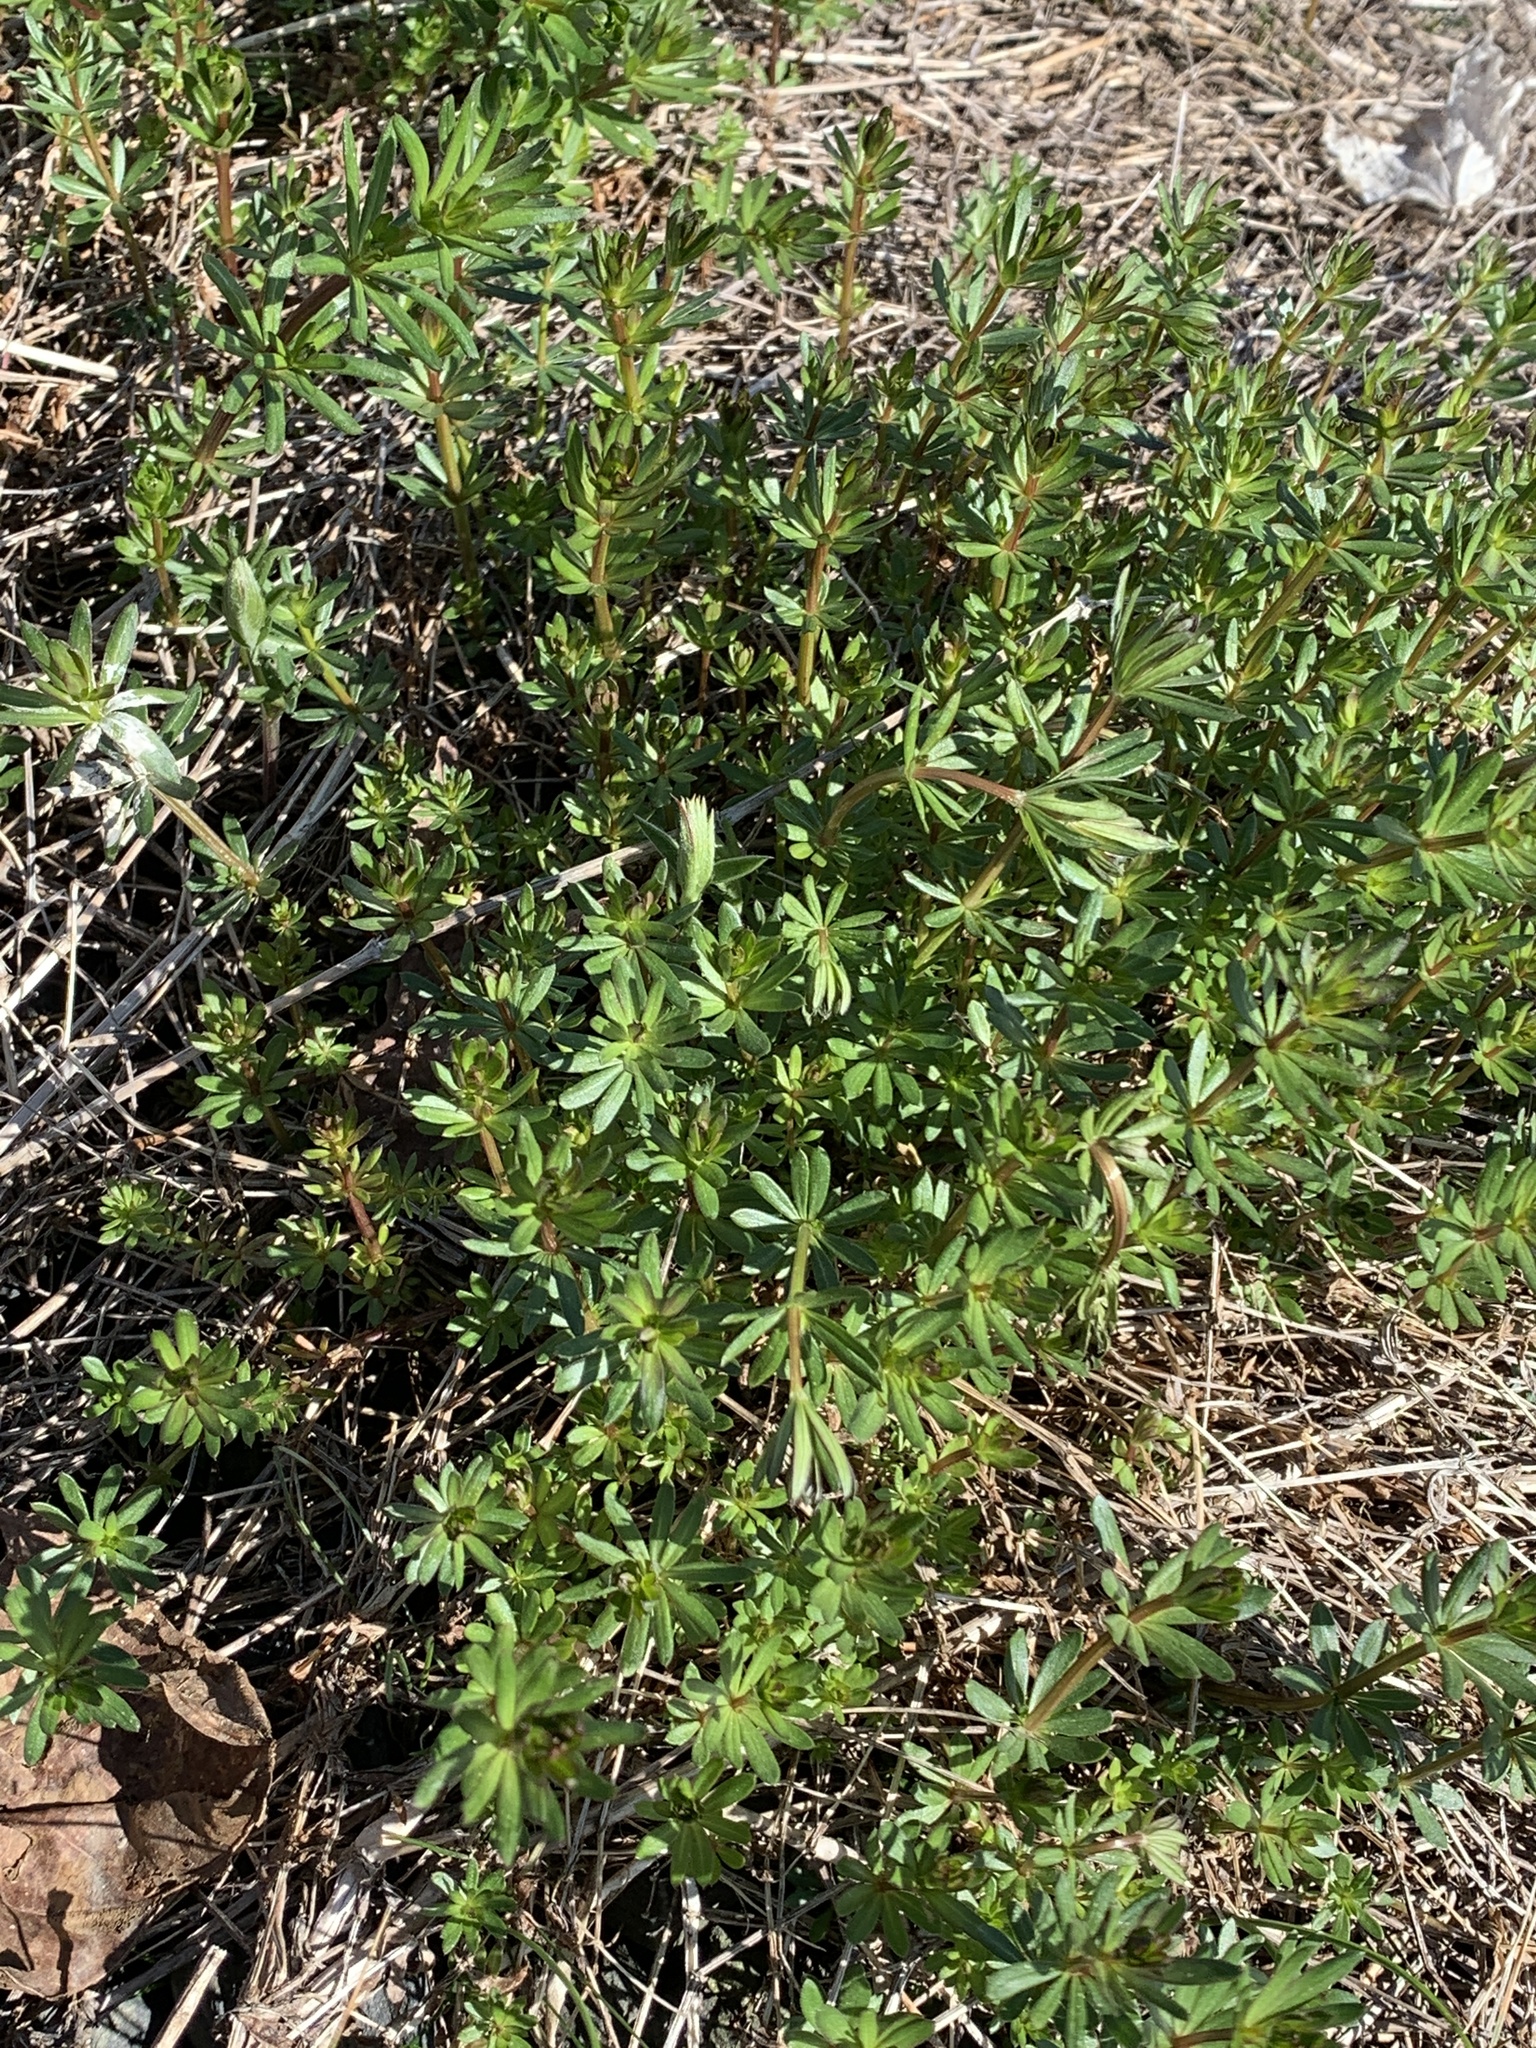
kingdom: Plantae
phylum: Tracheophyta
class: Magnoliopsida
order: Gentianales
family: Rubiaceae
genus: Galium
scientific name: Galium mollugo
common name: Hedge bedstraw
